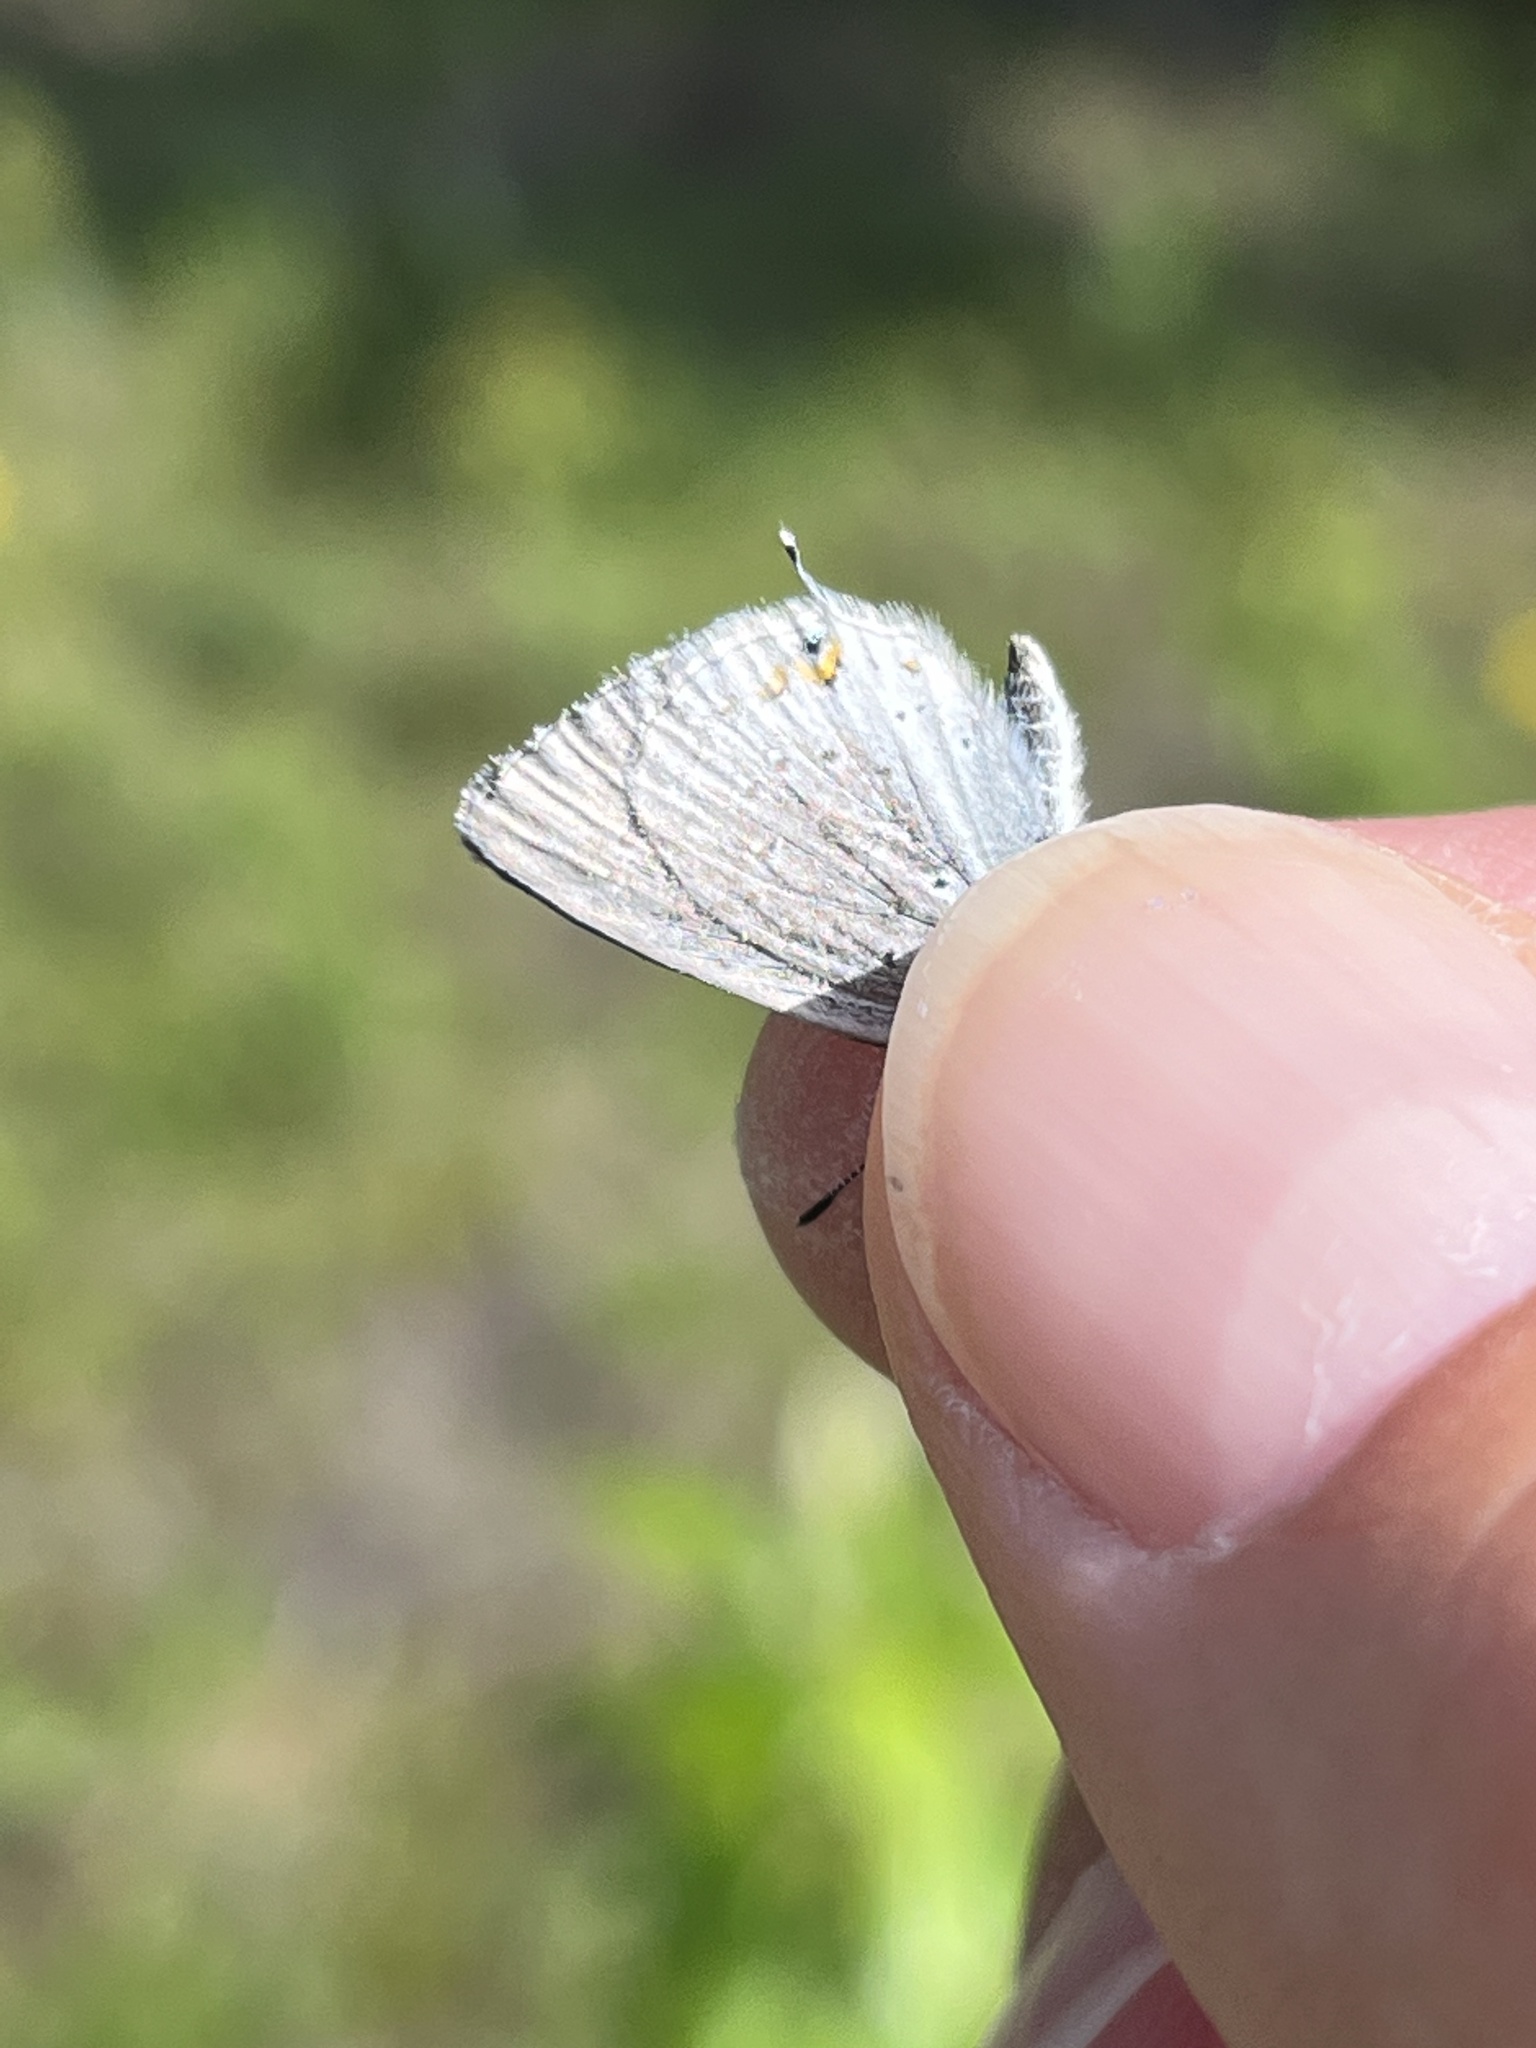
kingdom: Animalia
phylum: Arthropoda
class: Insecta
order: Lepidoptera
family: Lycaenidae
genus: Elkalyce
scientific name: Elkalyce amyntula
